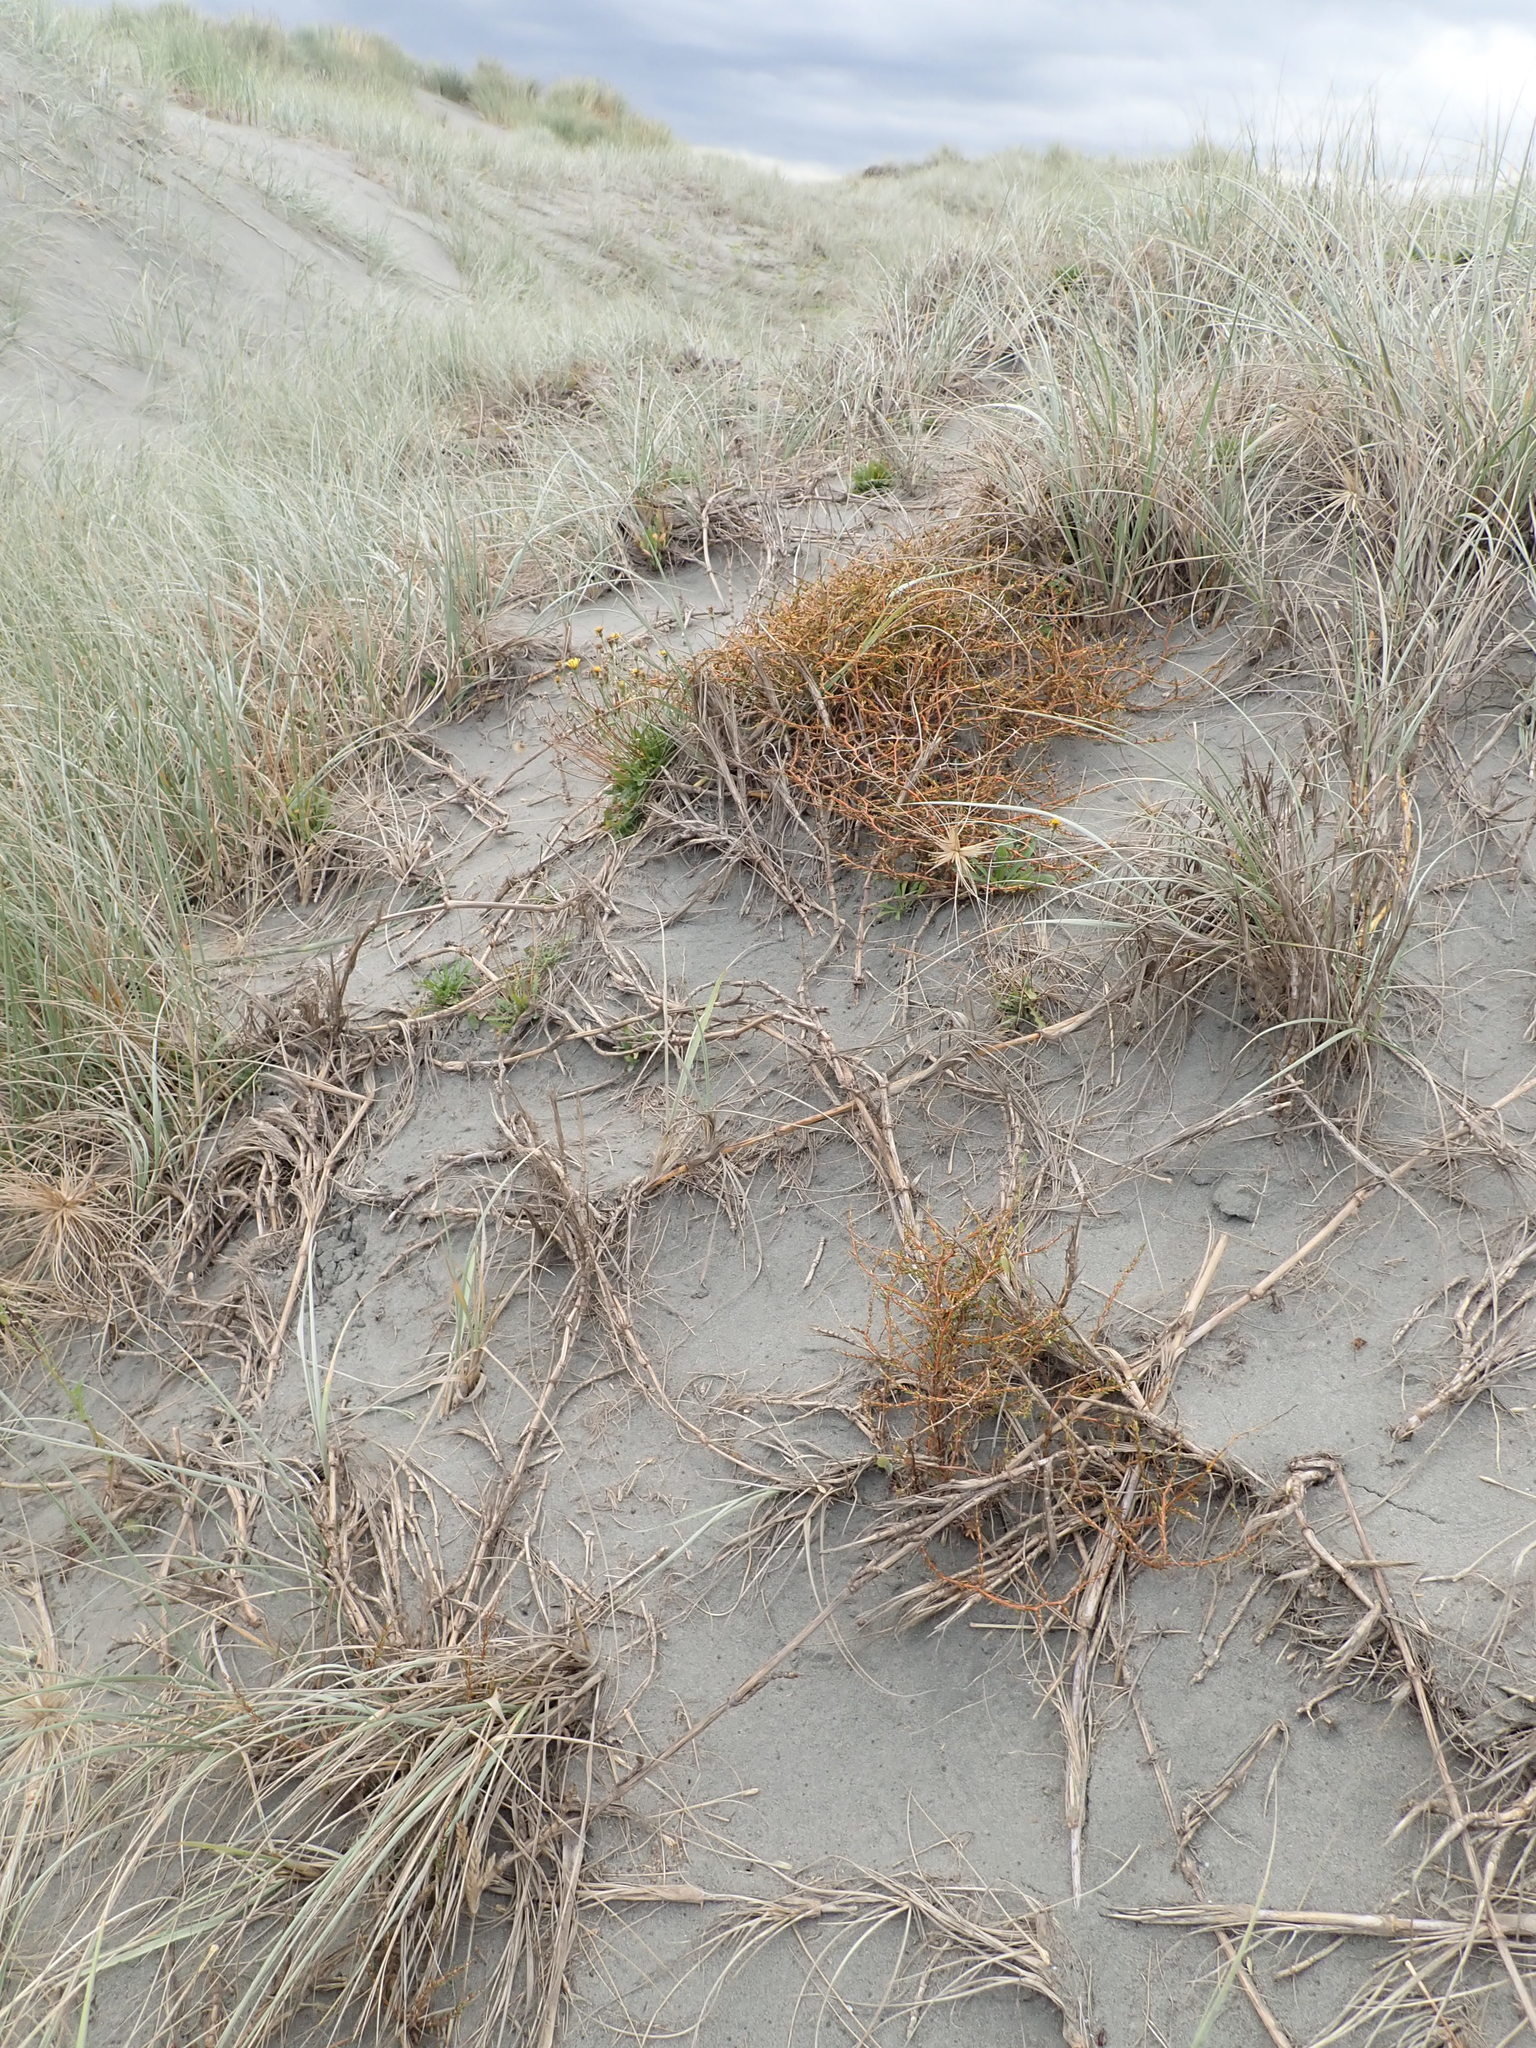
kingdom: Plantae
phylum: Tracheophyta
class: Magnoliopsida
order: Gentianales
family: Rubiaceae
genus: Coprosma
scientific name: Coprosma acerosa
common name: Sand coprosma
